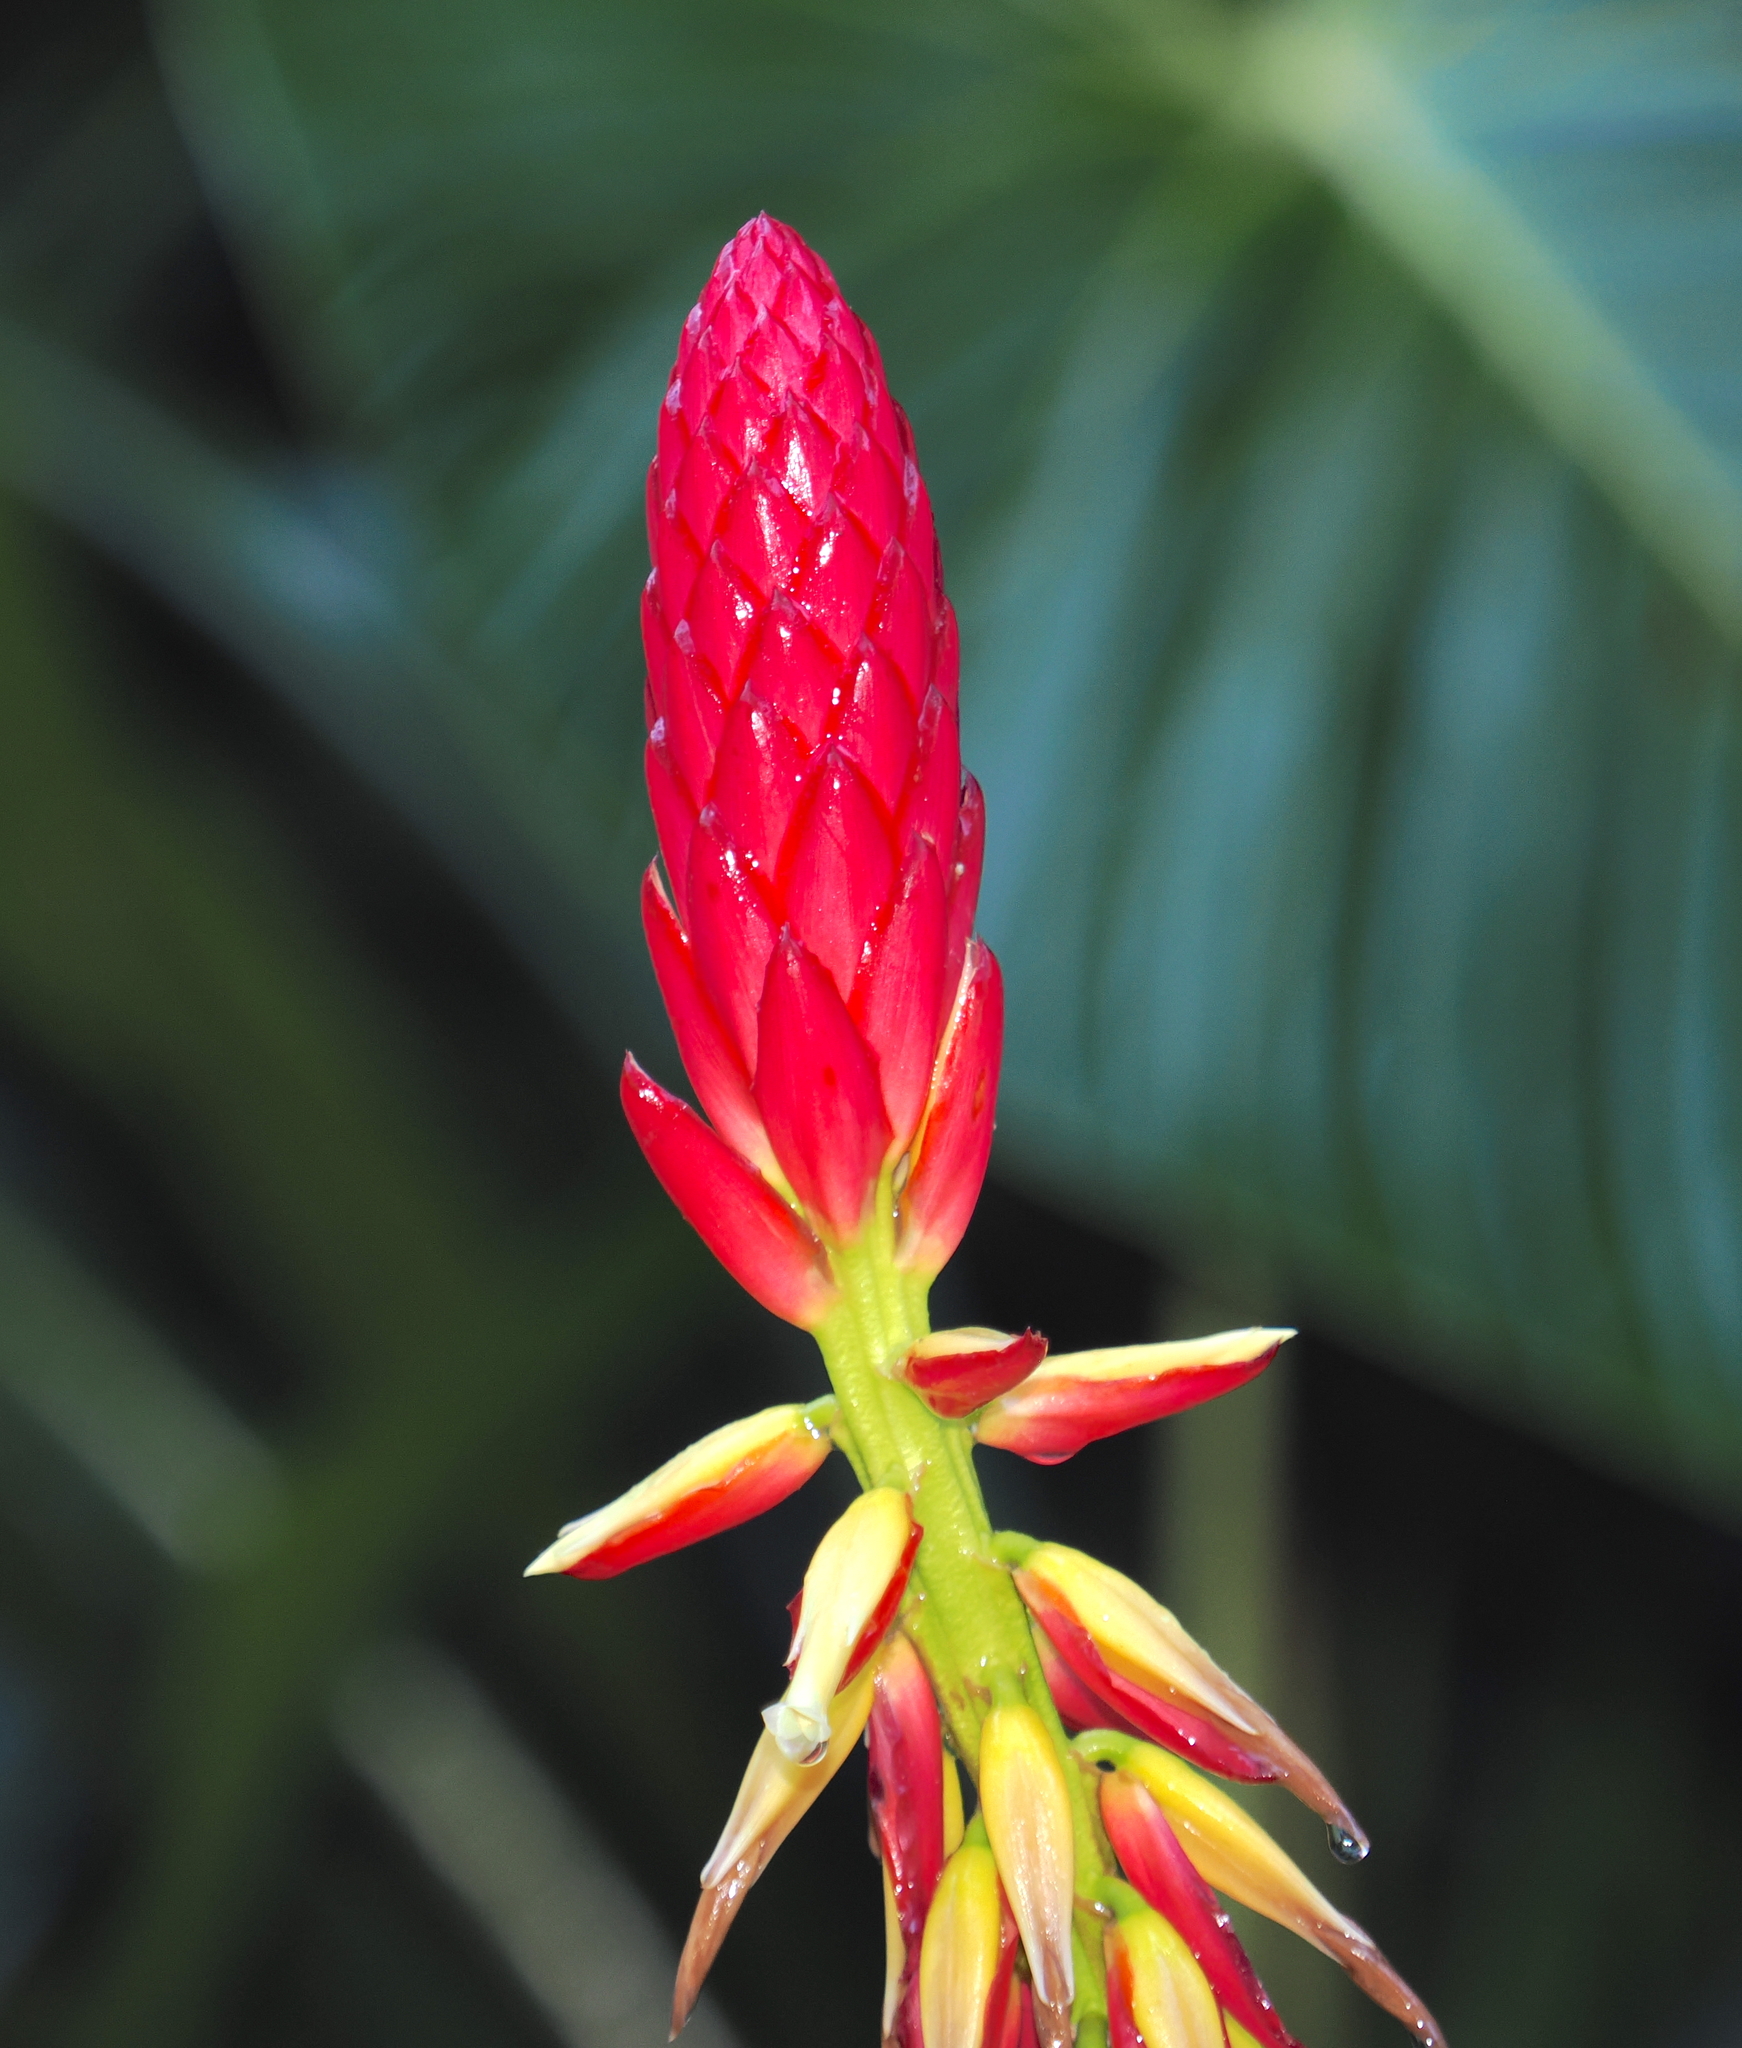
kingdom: Plantae
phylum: Tracheophyta
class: Liliopsida
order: Poales
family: Bromeliaceae
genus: Pitcairnia
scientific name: Pitcairnia kniphofioides
